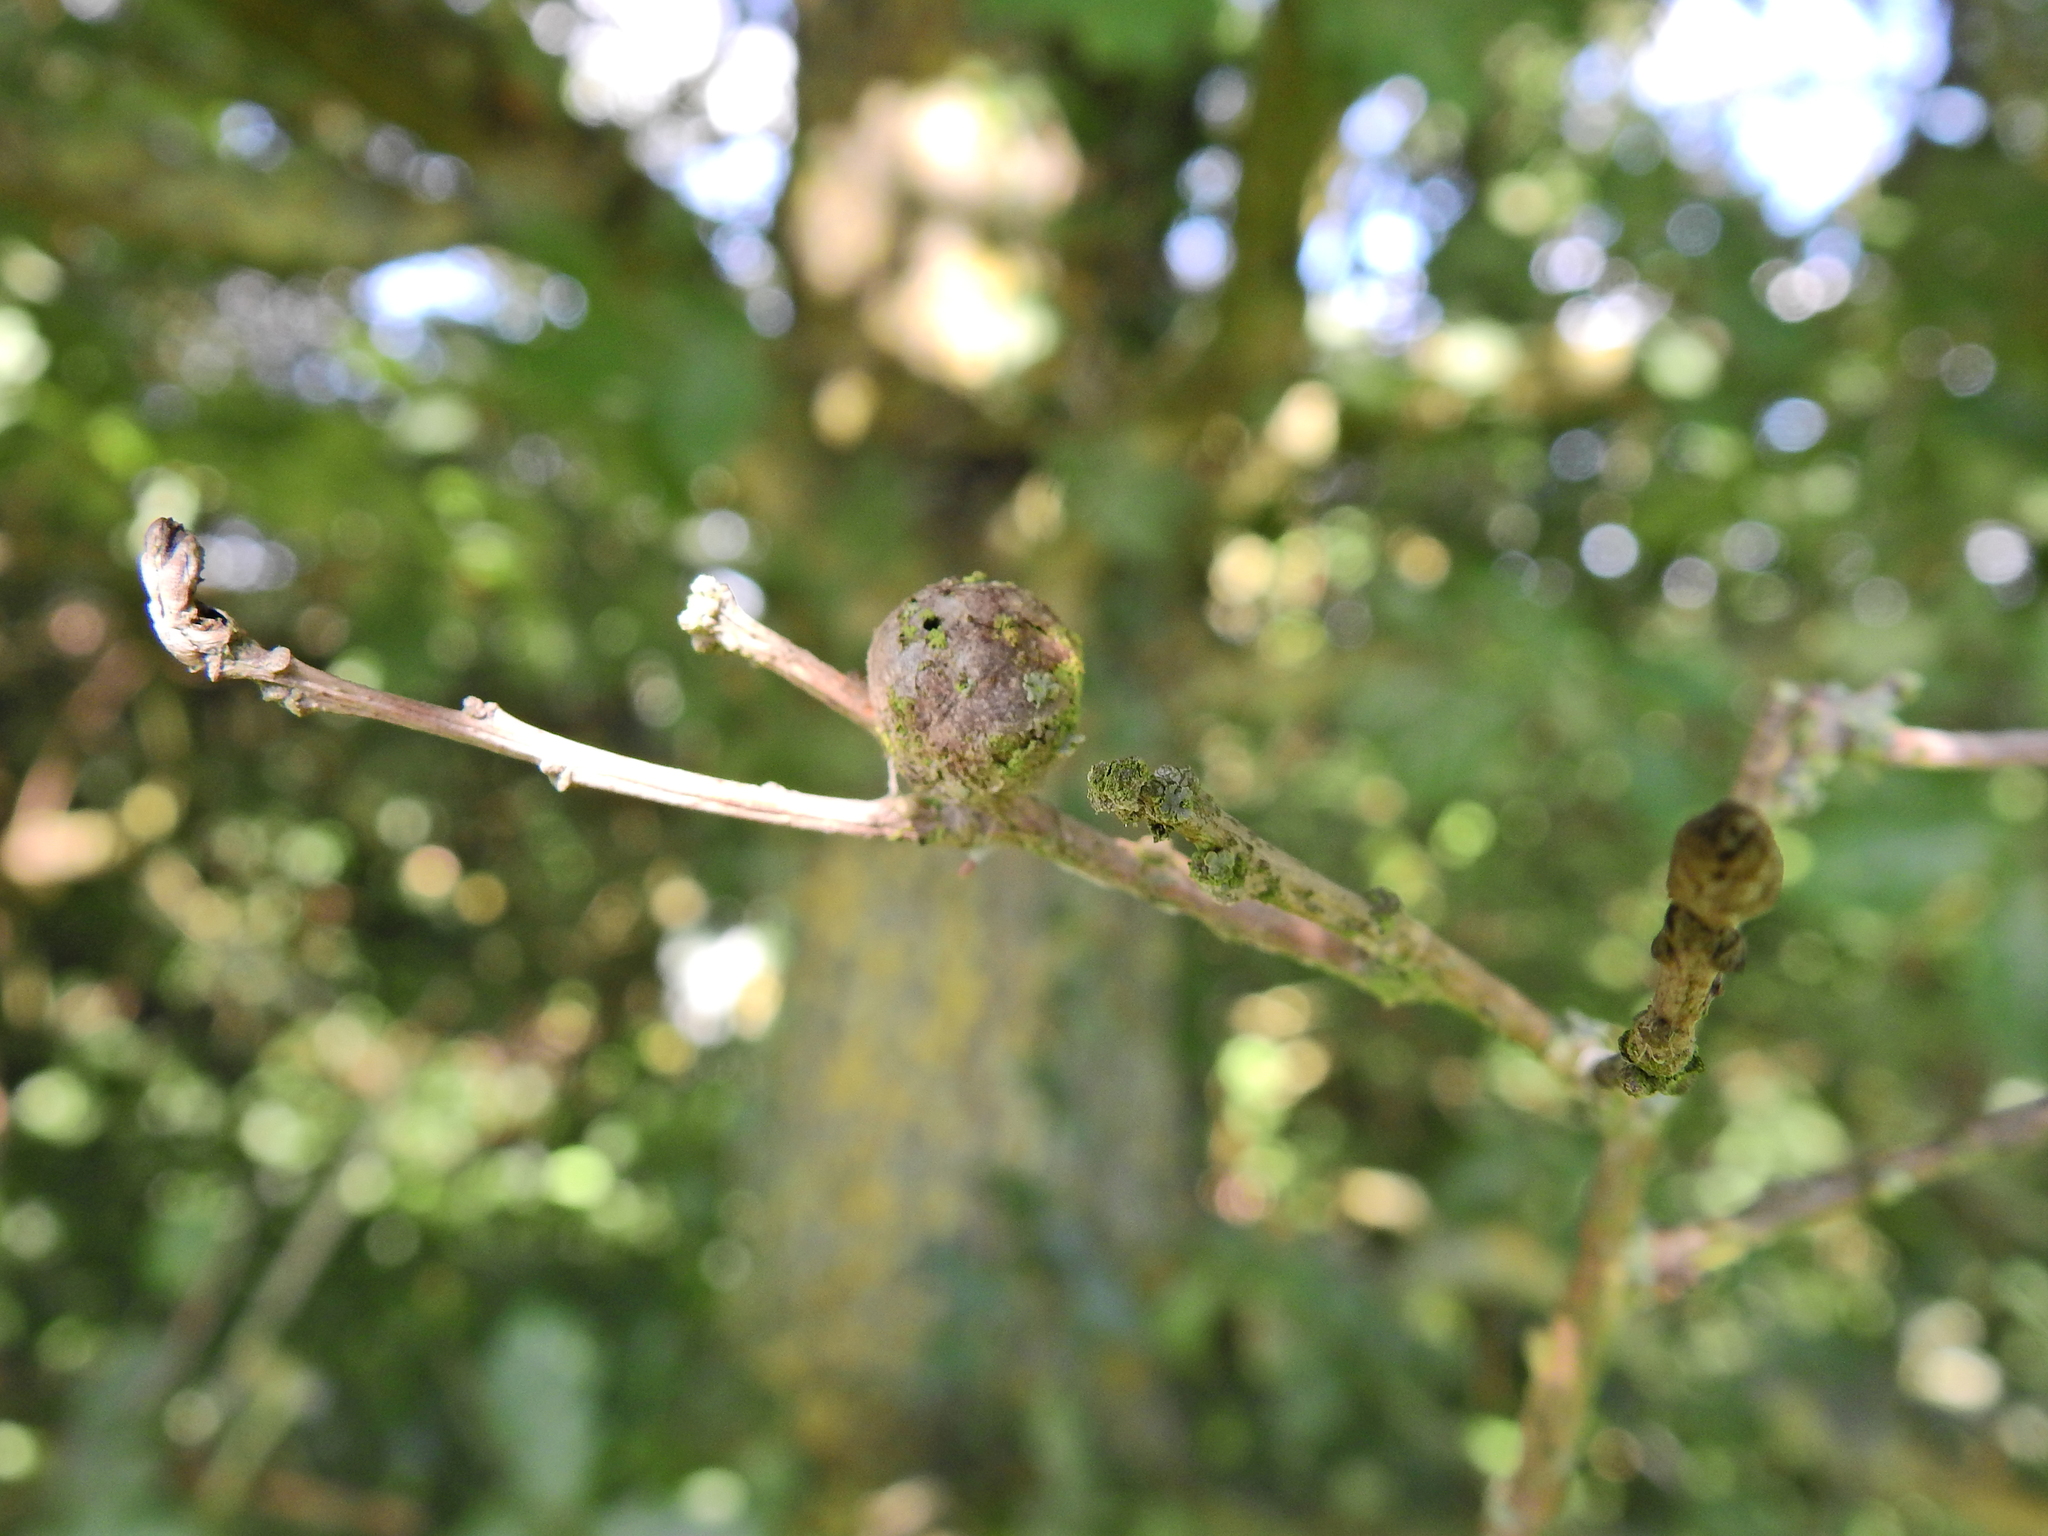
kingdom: Animalia
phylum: Arthropoda
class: Insecta
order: Hymenoptera
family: Cynipidae
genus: Andricus
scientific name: Andricus lignicolus
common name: Cola-nut gall
